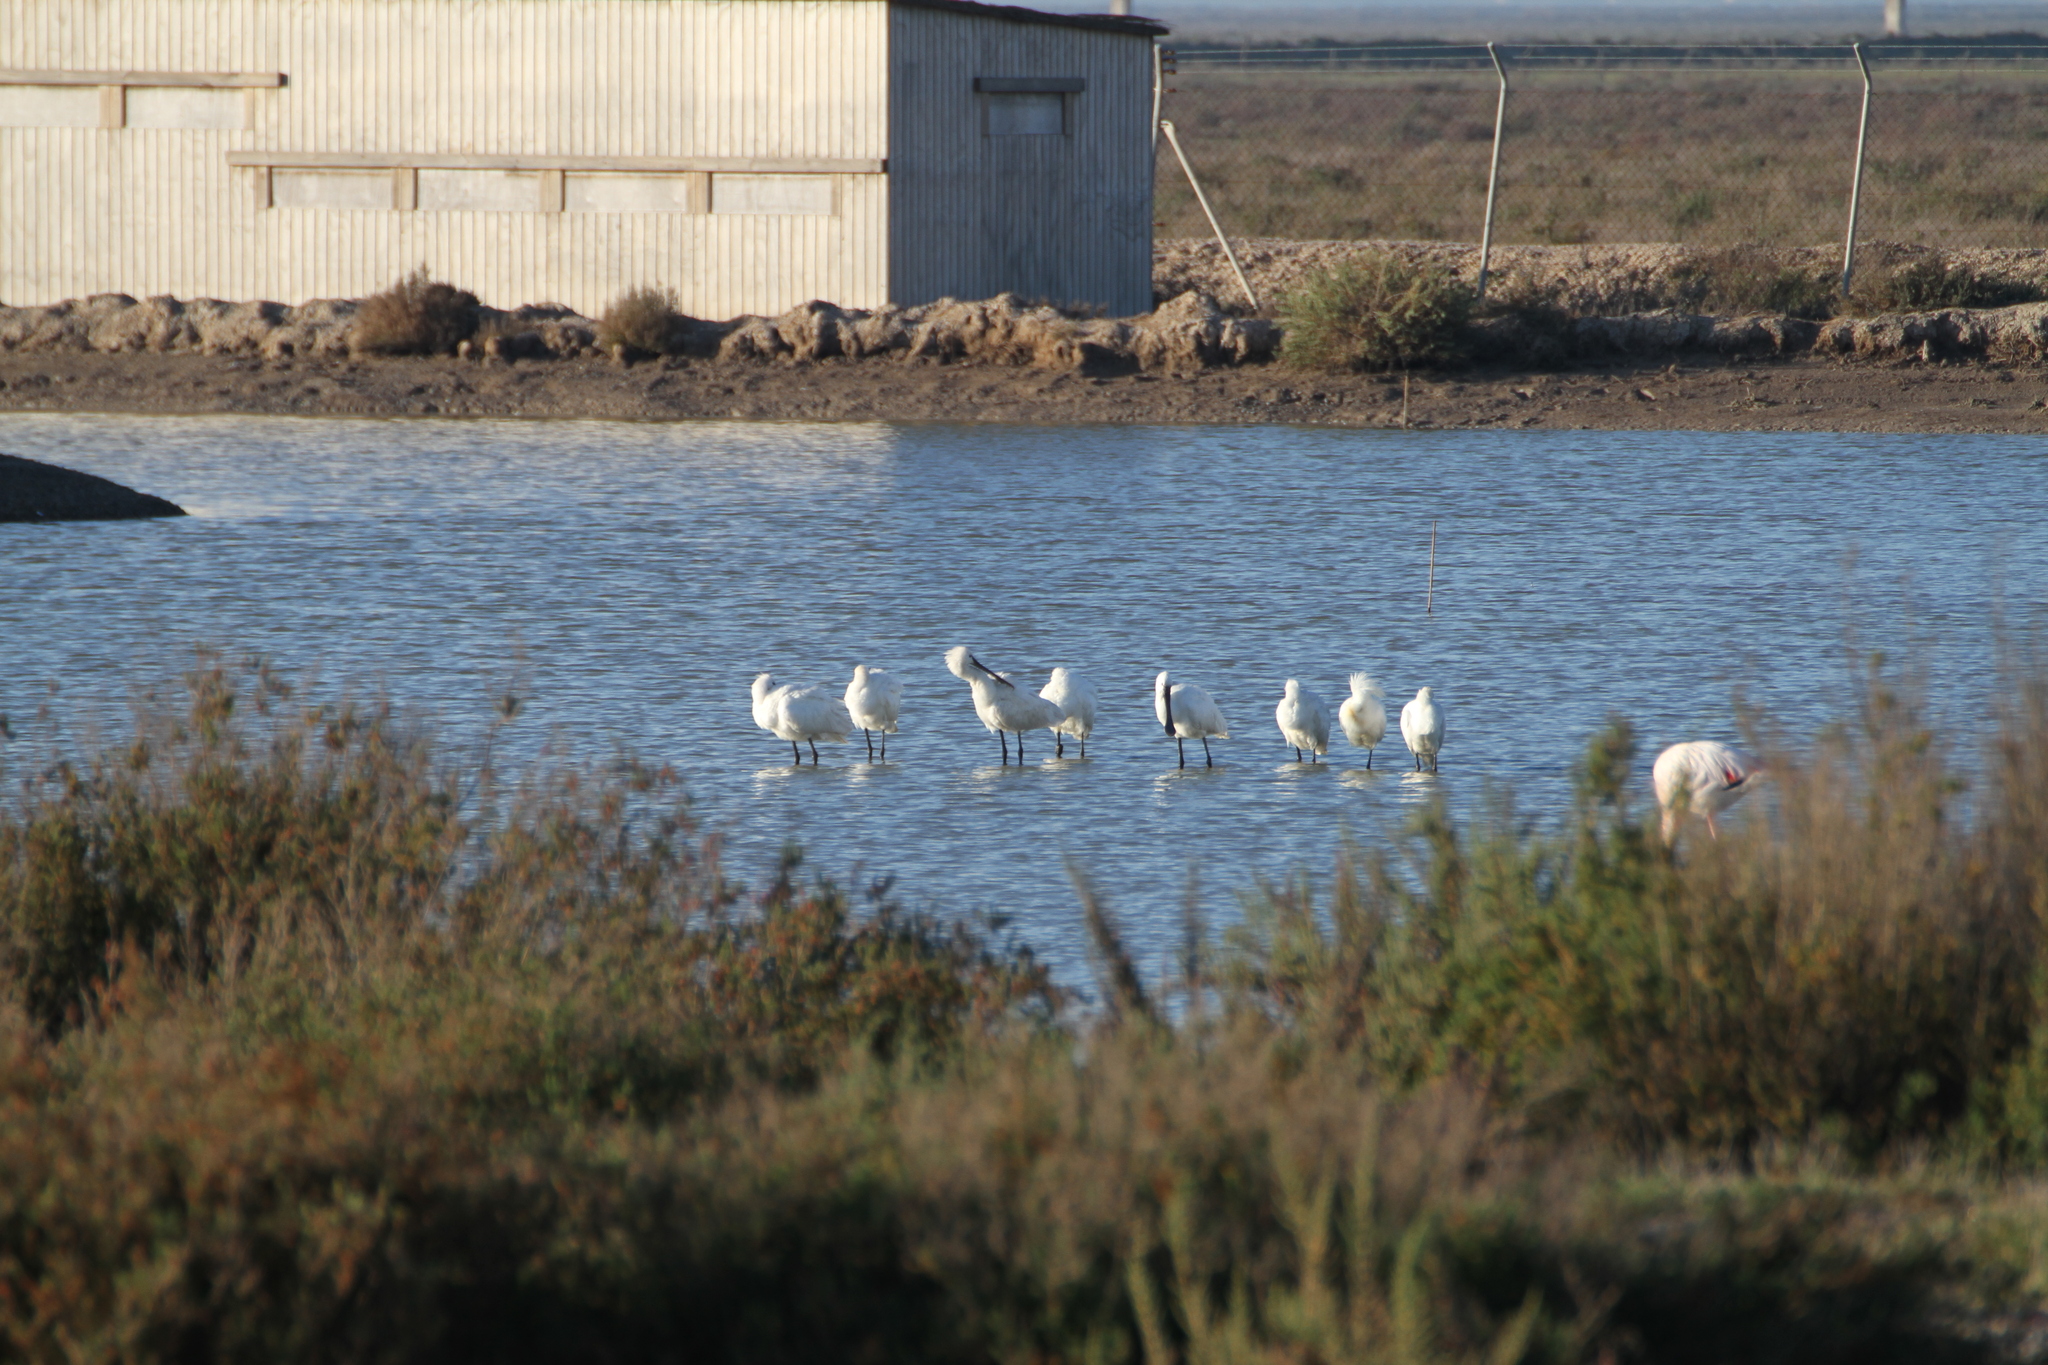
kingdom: Animalia
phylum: Chordata
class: Aves
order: Pelecaniformes
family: Threskiornithidae
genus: Platalea
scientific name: Platalea leucorodia
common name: Eurasian spoonbill
